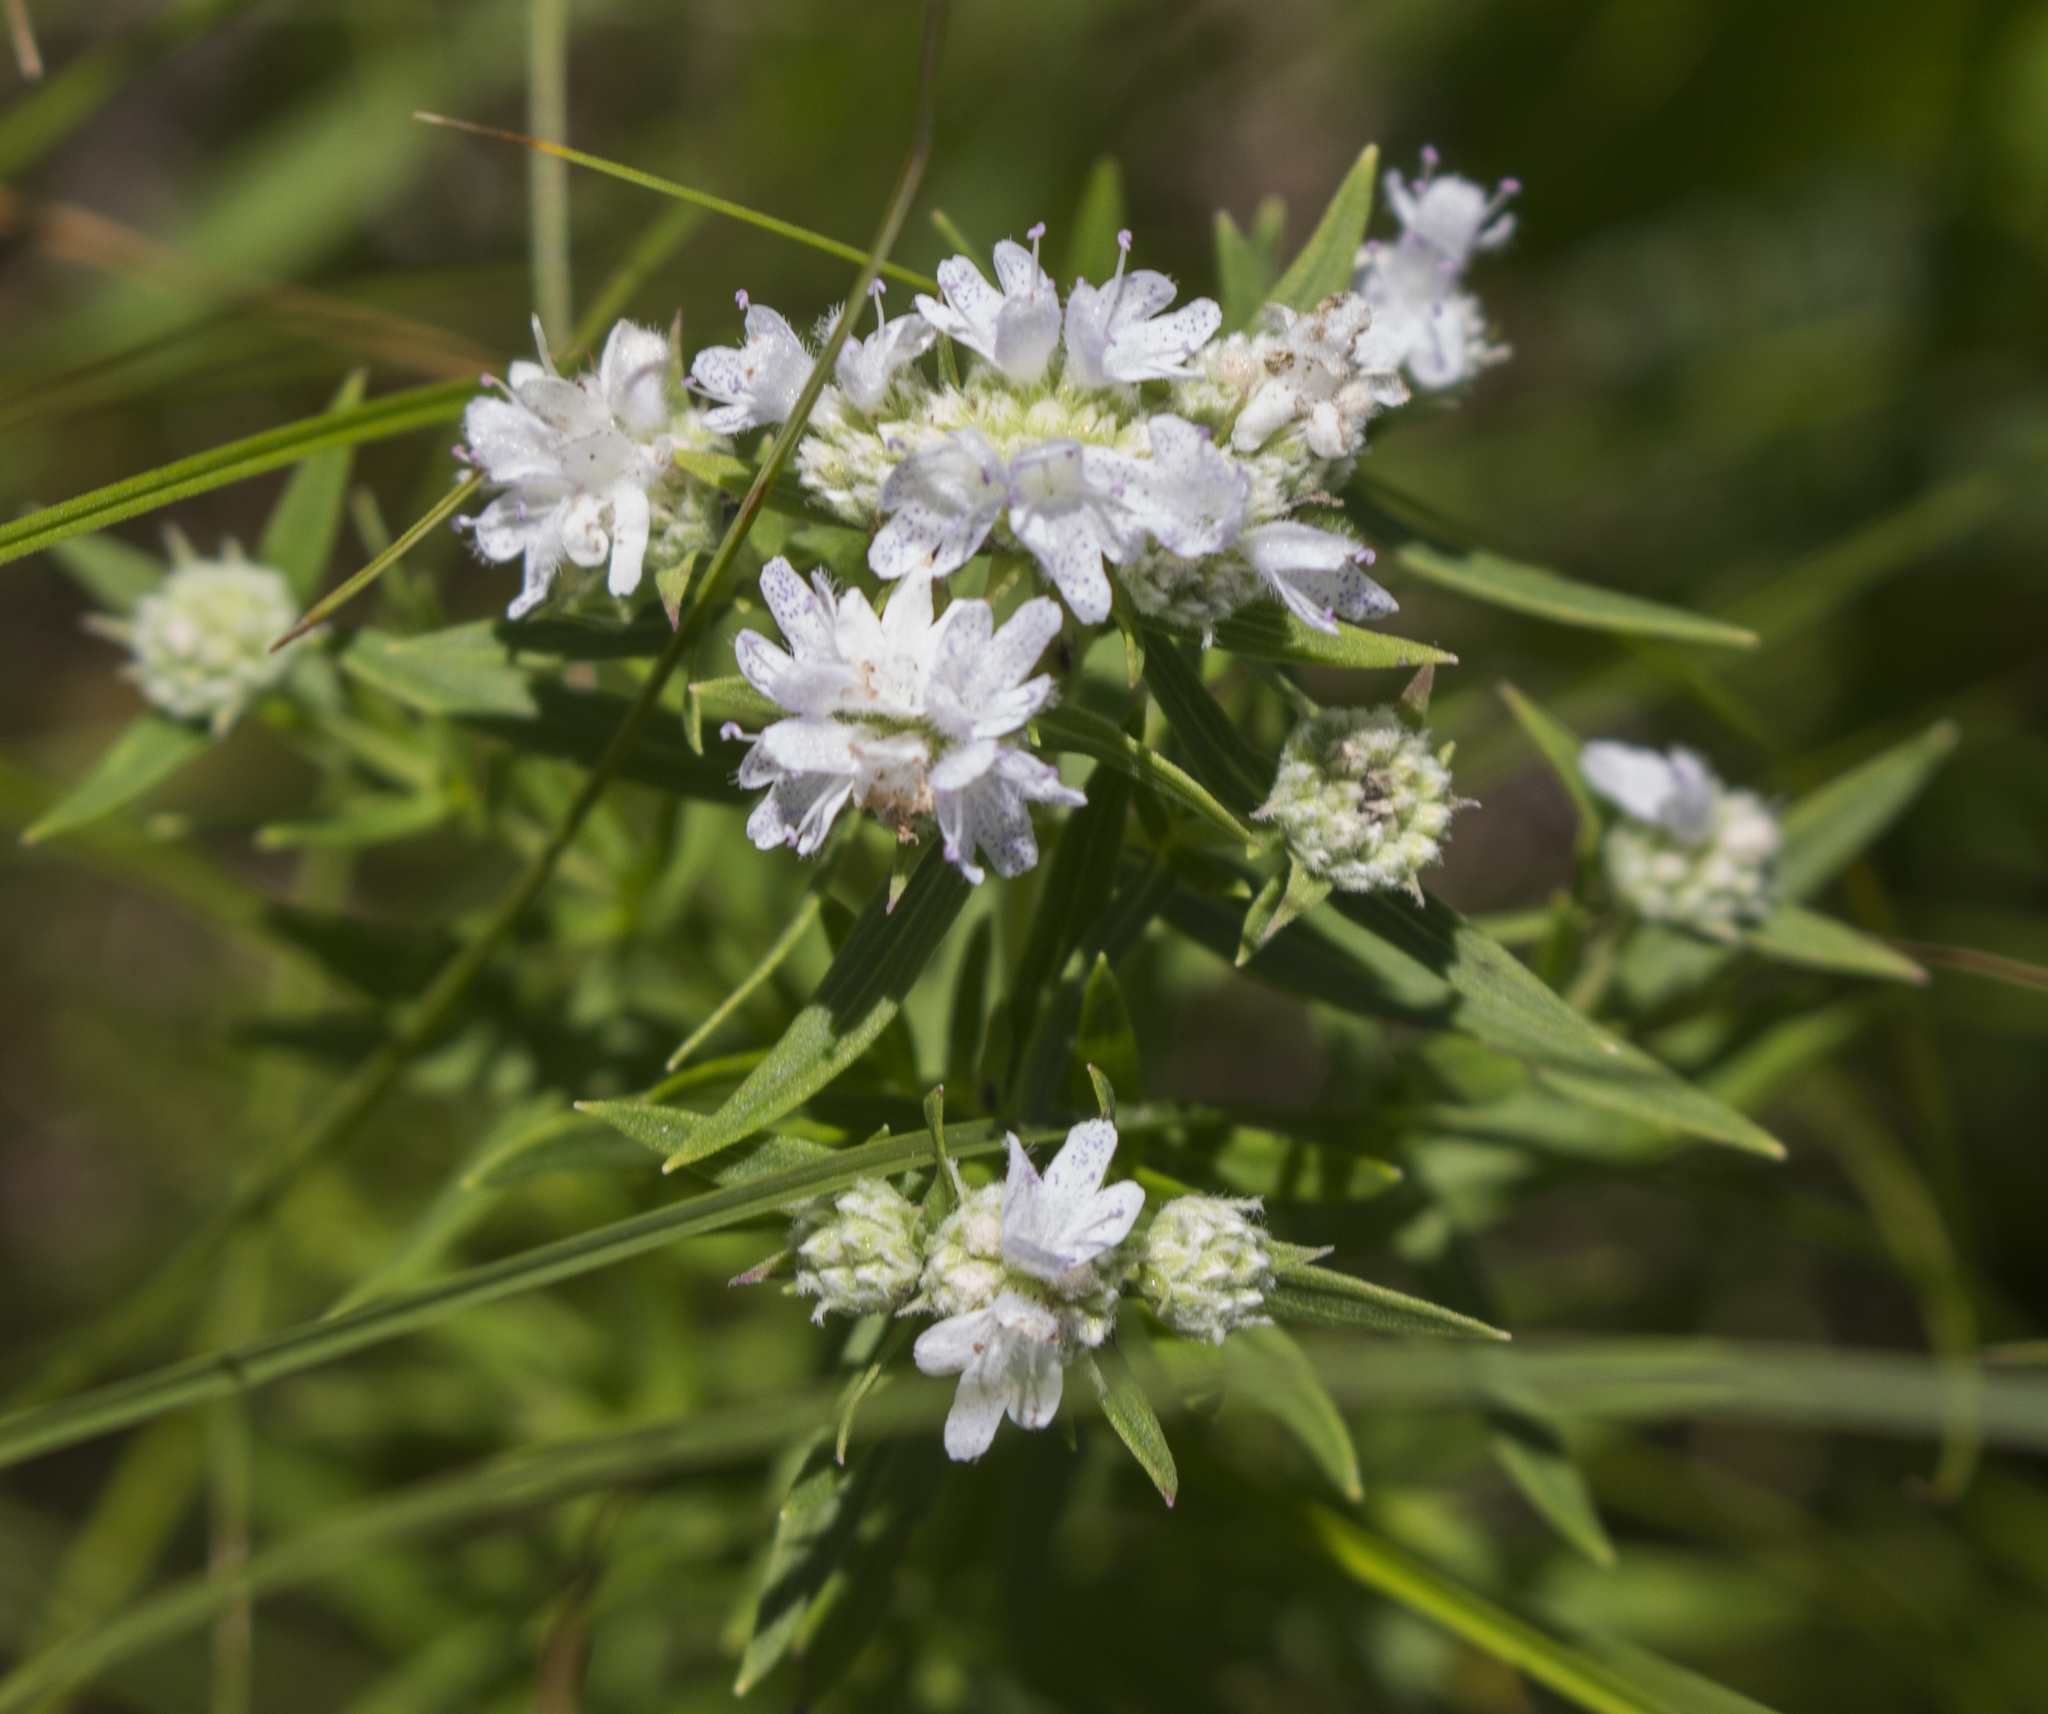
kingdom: Plantae
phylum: Tracheophyta
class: Magnoliopsida
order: Lamiales
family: Lamiaceae
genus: Pycnanthemum
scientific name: Pycnanthemum virginianum
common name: Virginia mountain-mint
